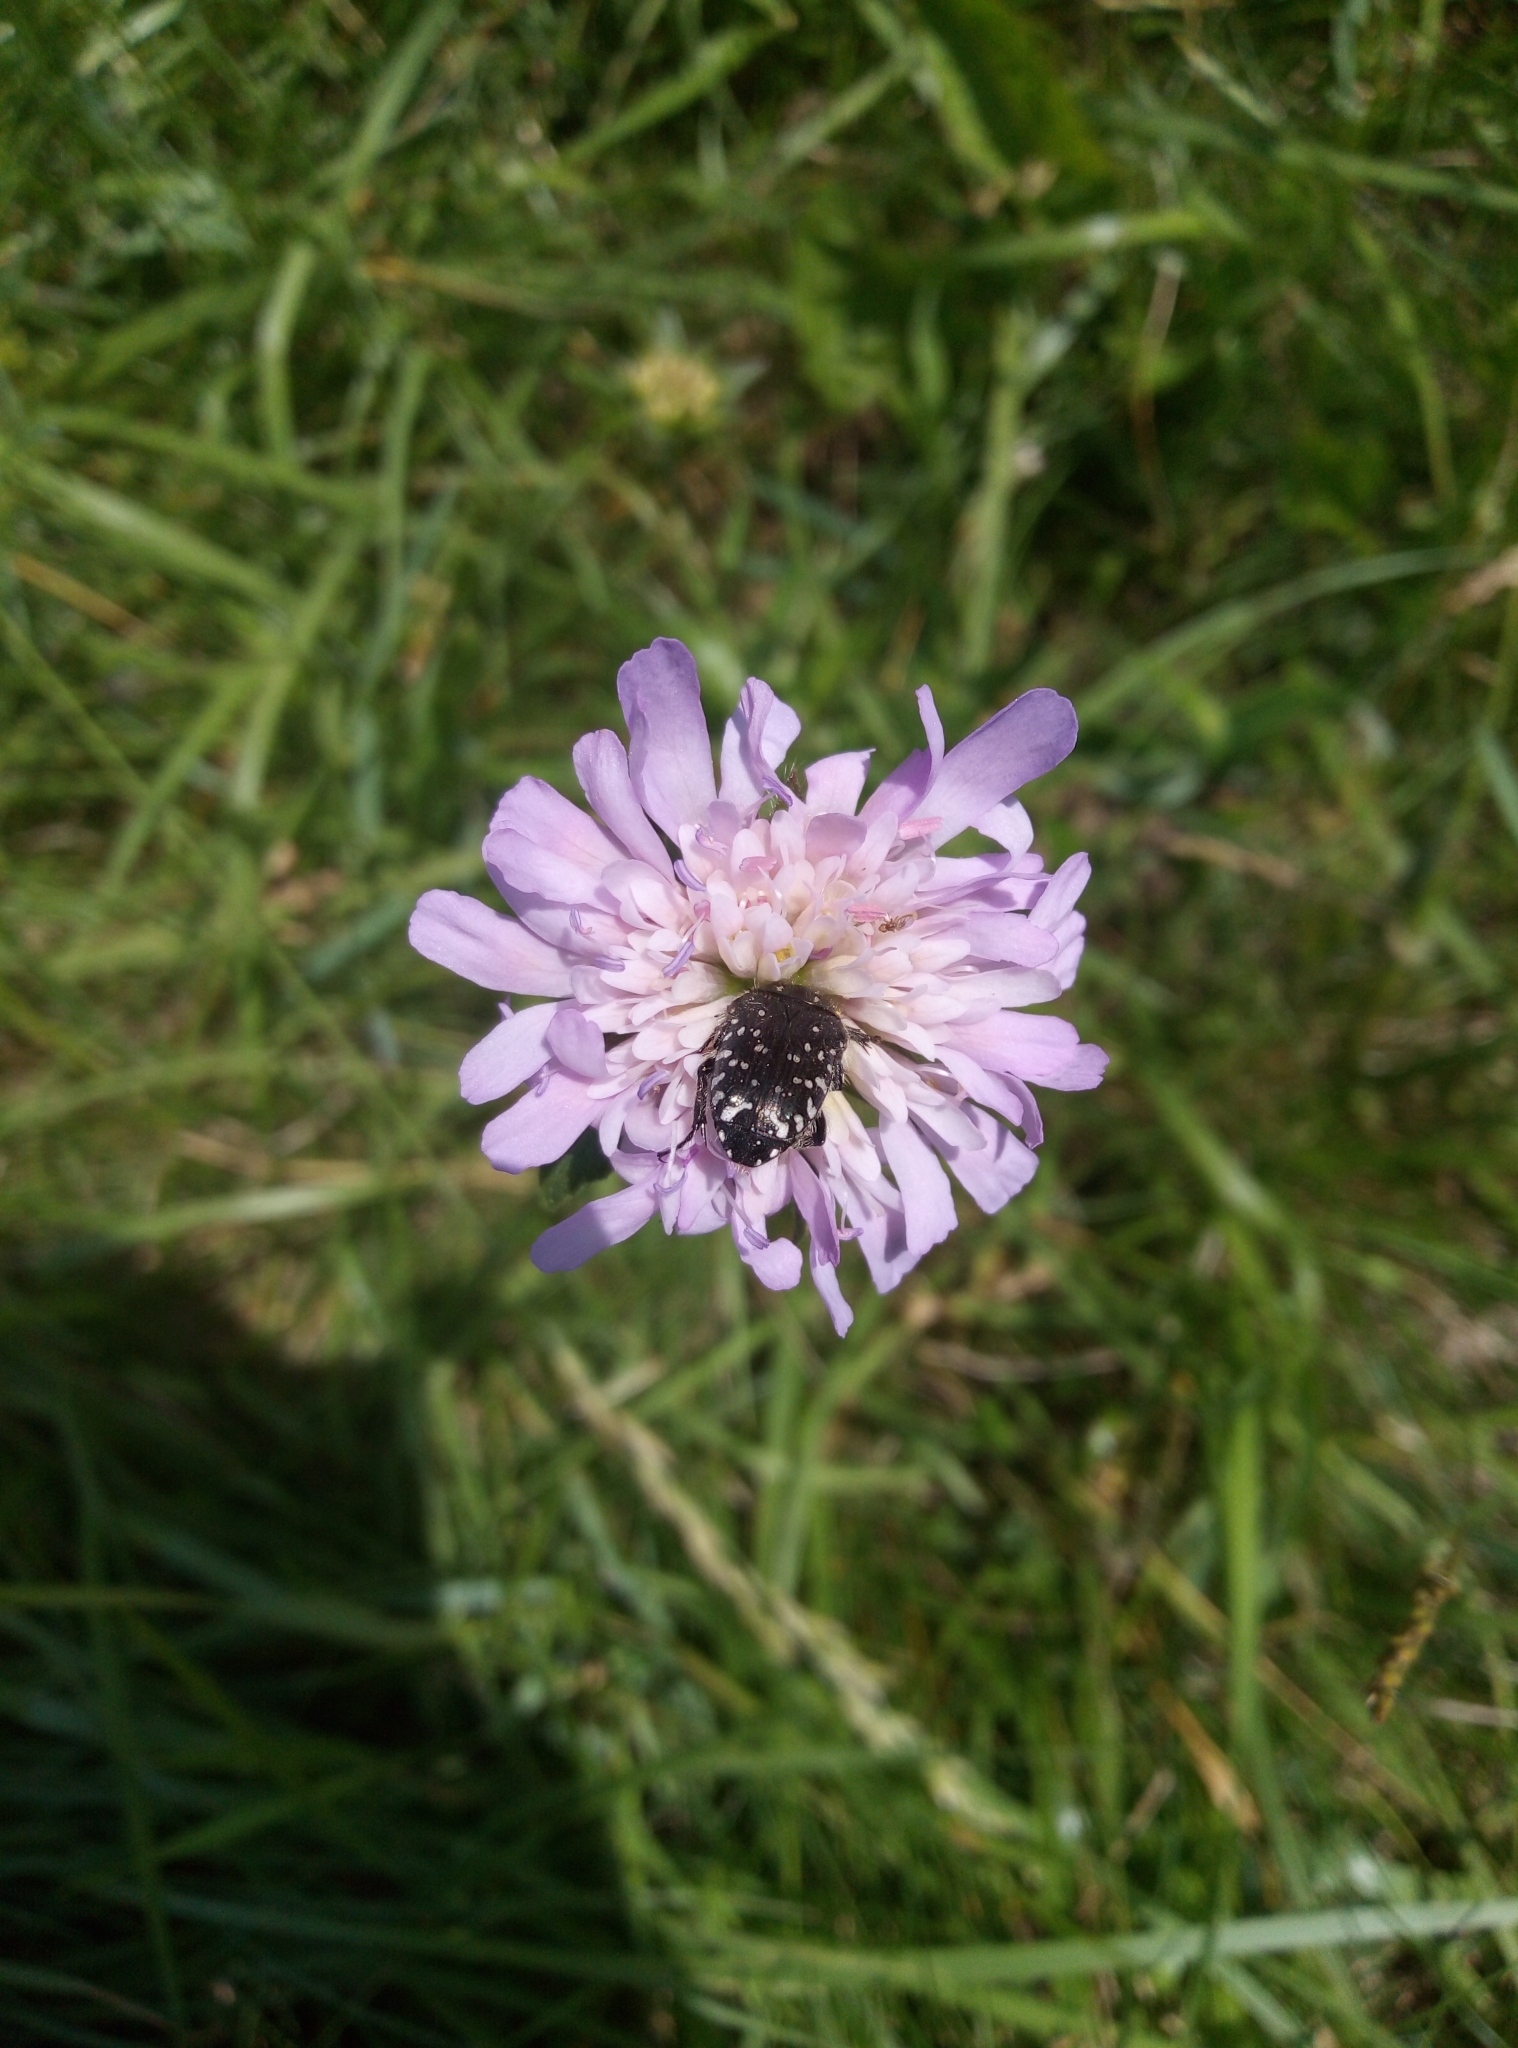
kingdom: Animalia
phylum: Arthropoda
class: Insecta
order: Coleoptera
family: Scarabaeidae
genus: Oxythyrea
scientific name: Oxythyrea funesta
